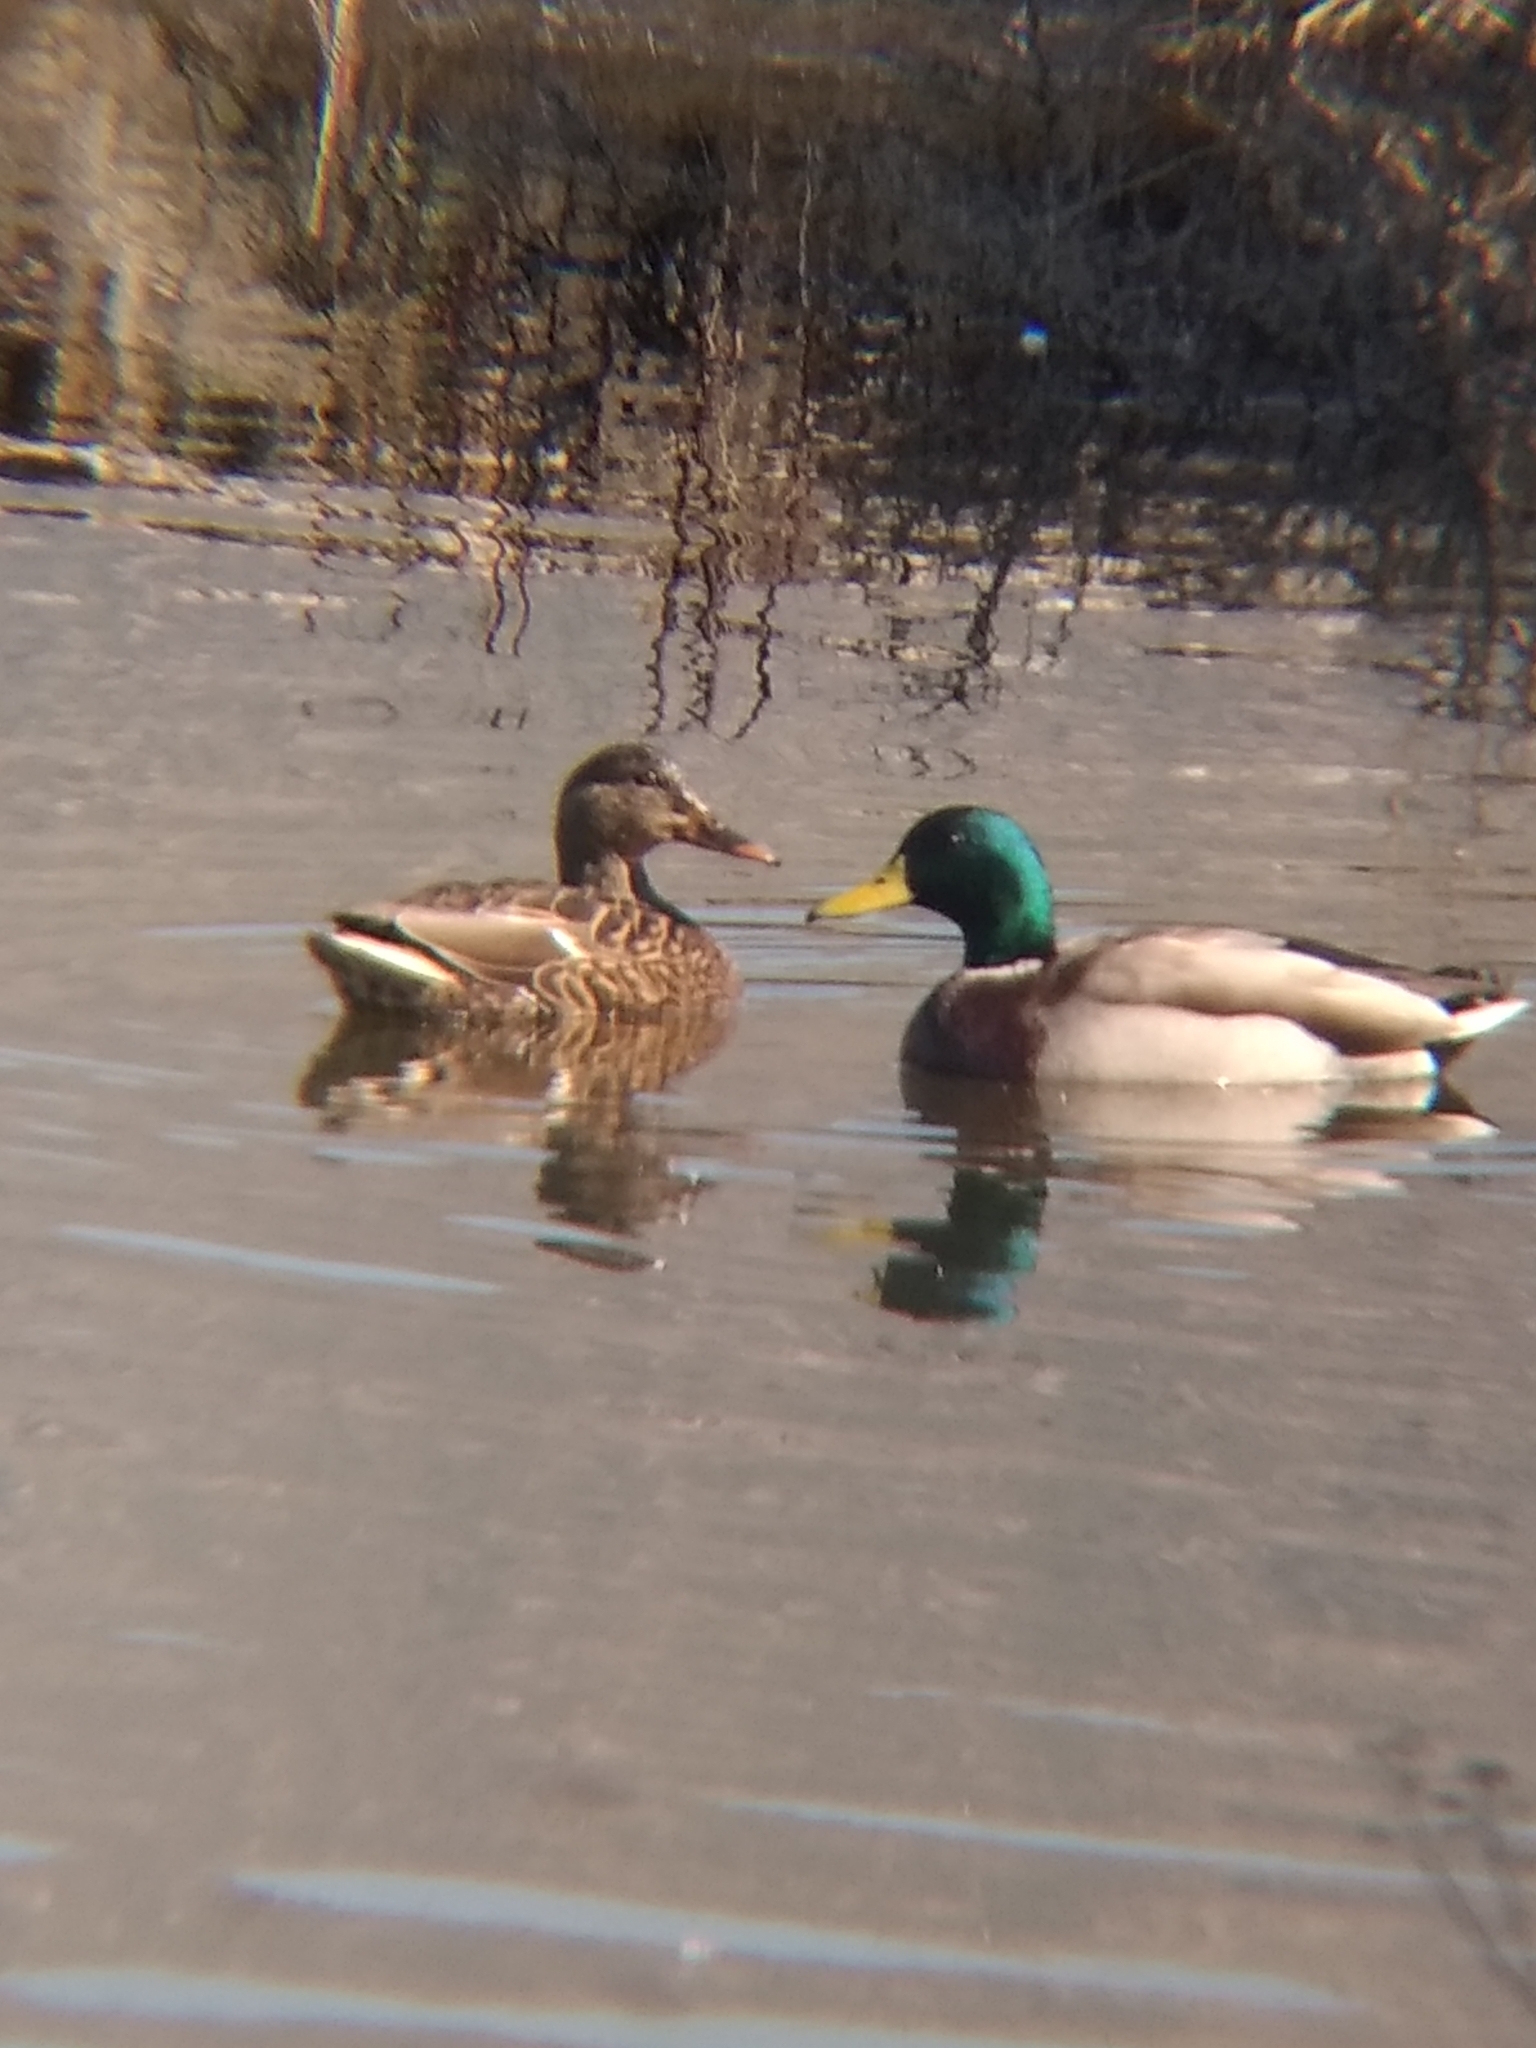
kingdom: Animalia
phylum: Chordata
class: Aves
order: Anseriformes
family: Anatidae
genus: Anas
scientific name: Anas platyrhynchos
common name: Mallard
